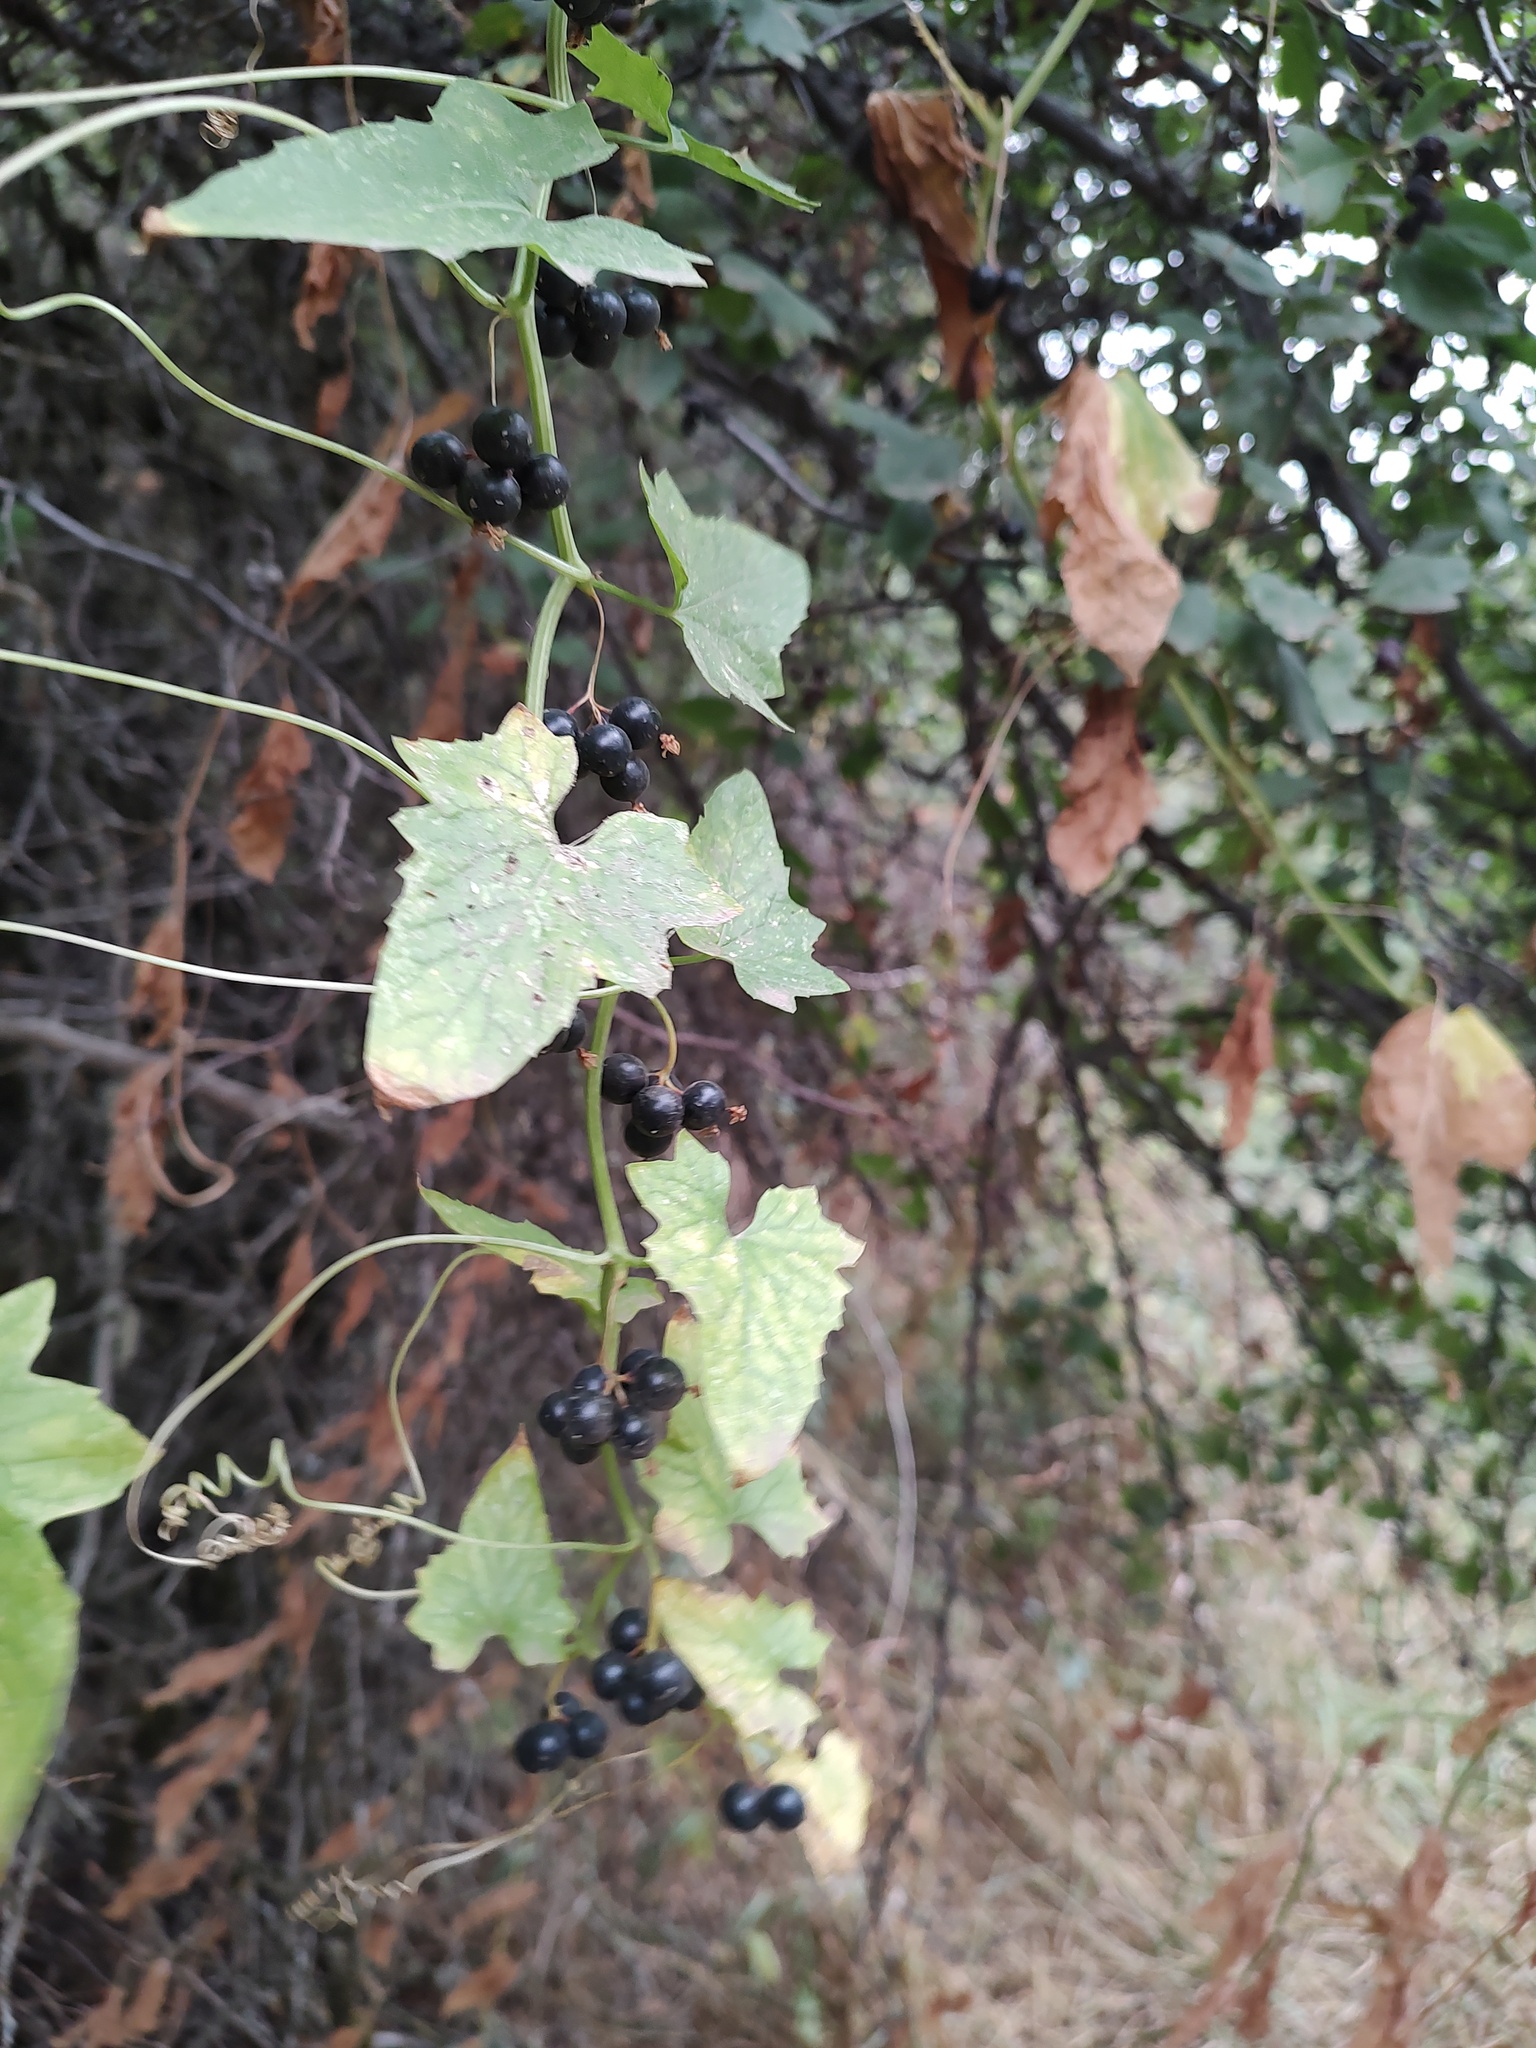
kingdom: Plantae
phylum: Tracheophyta
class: Magnoliopsida
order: Cucurbitales
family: Cucurbitaceae
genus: Bryonia
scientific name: Bryonia alba
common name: White bryony
